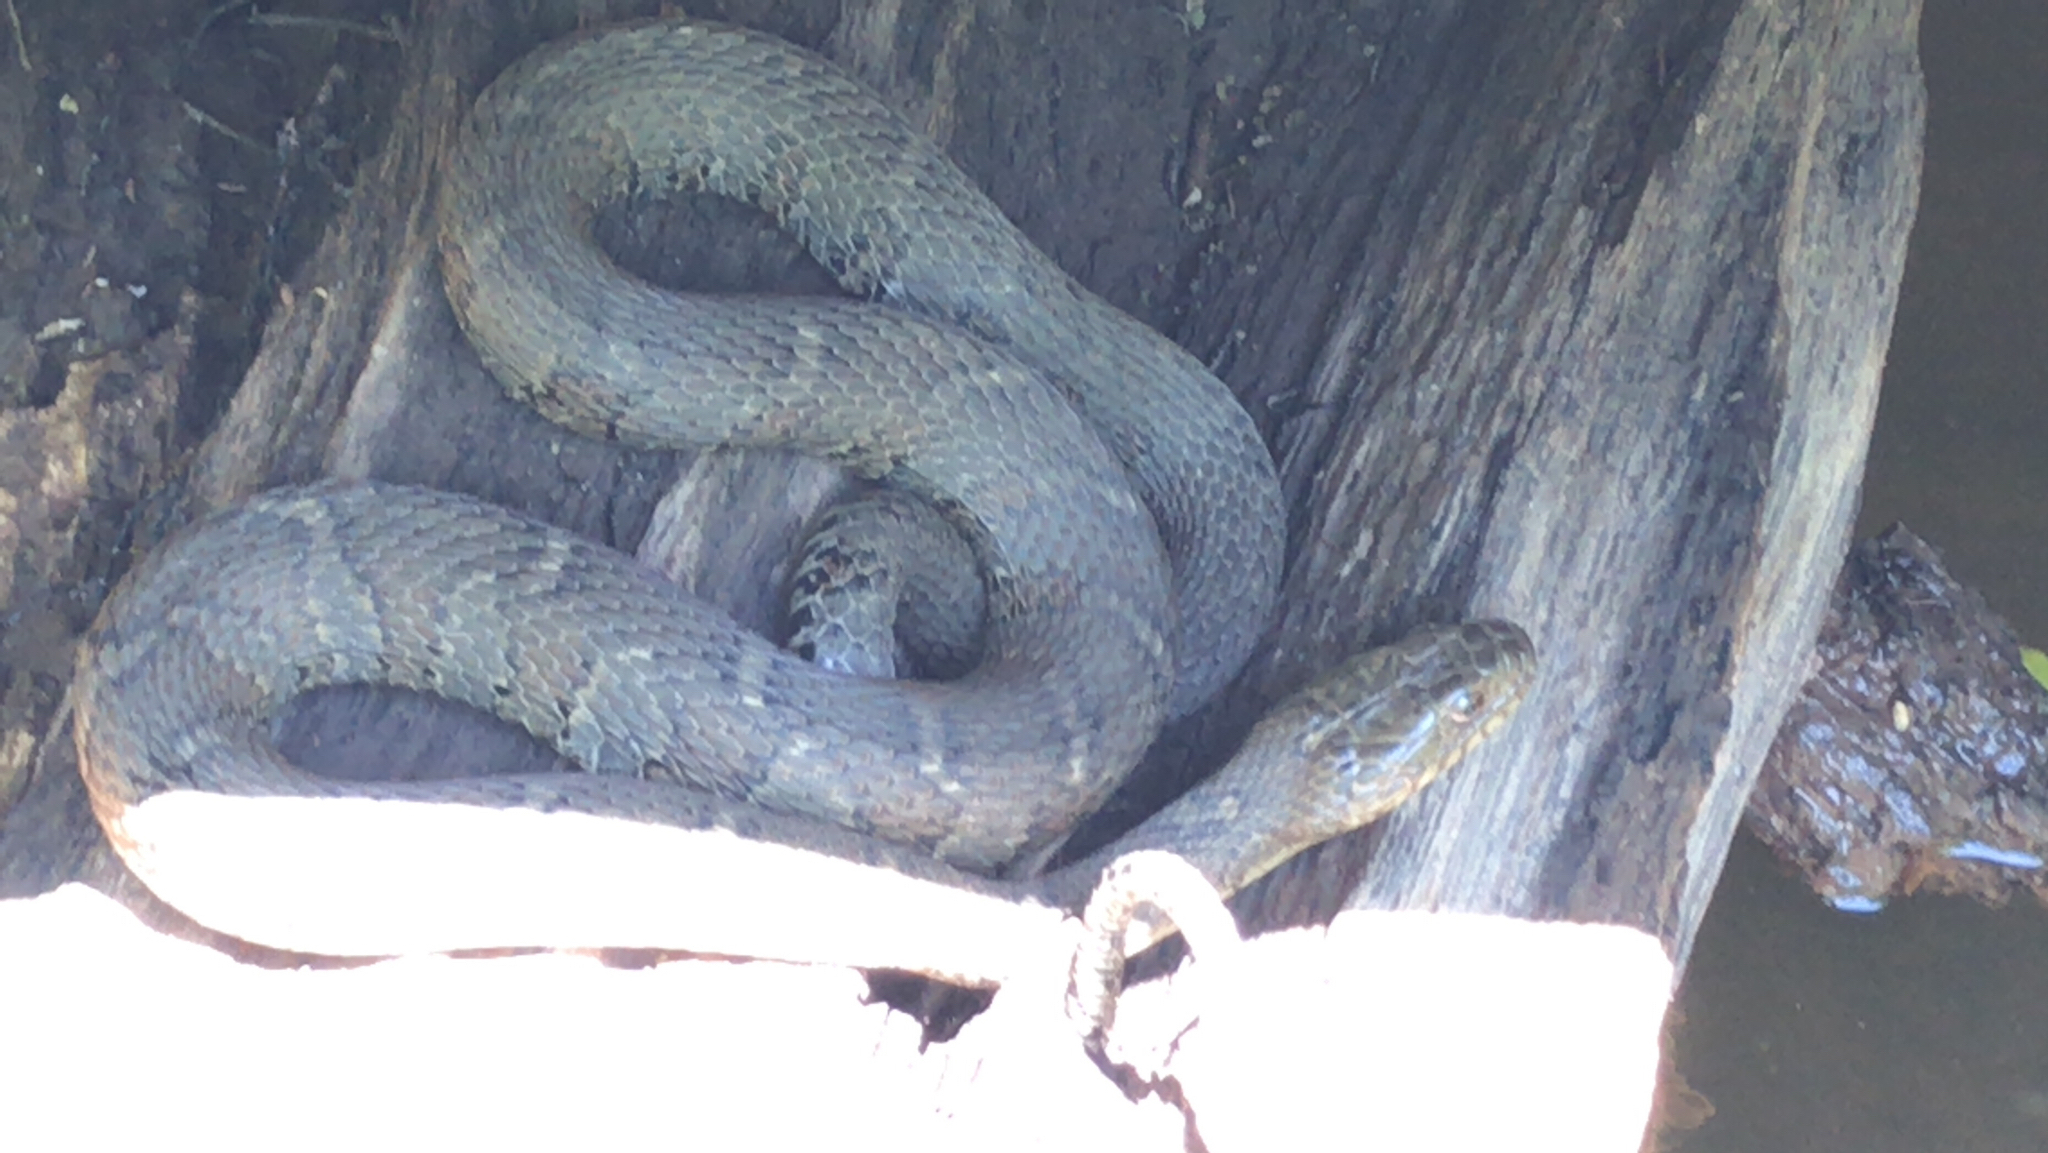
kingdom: Animalia
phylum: Chordata
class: Squamata
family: Colubridae
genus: Nerodia
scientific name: Nerodia sipedon
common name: Northern water snake
